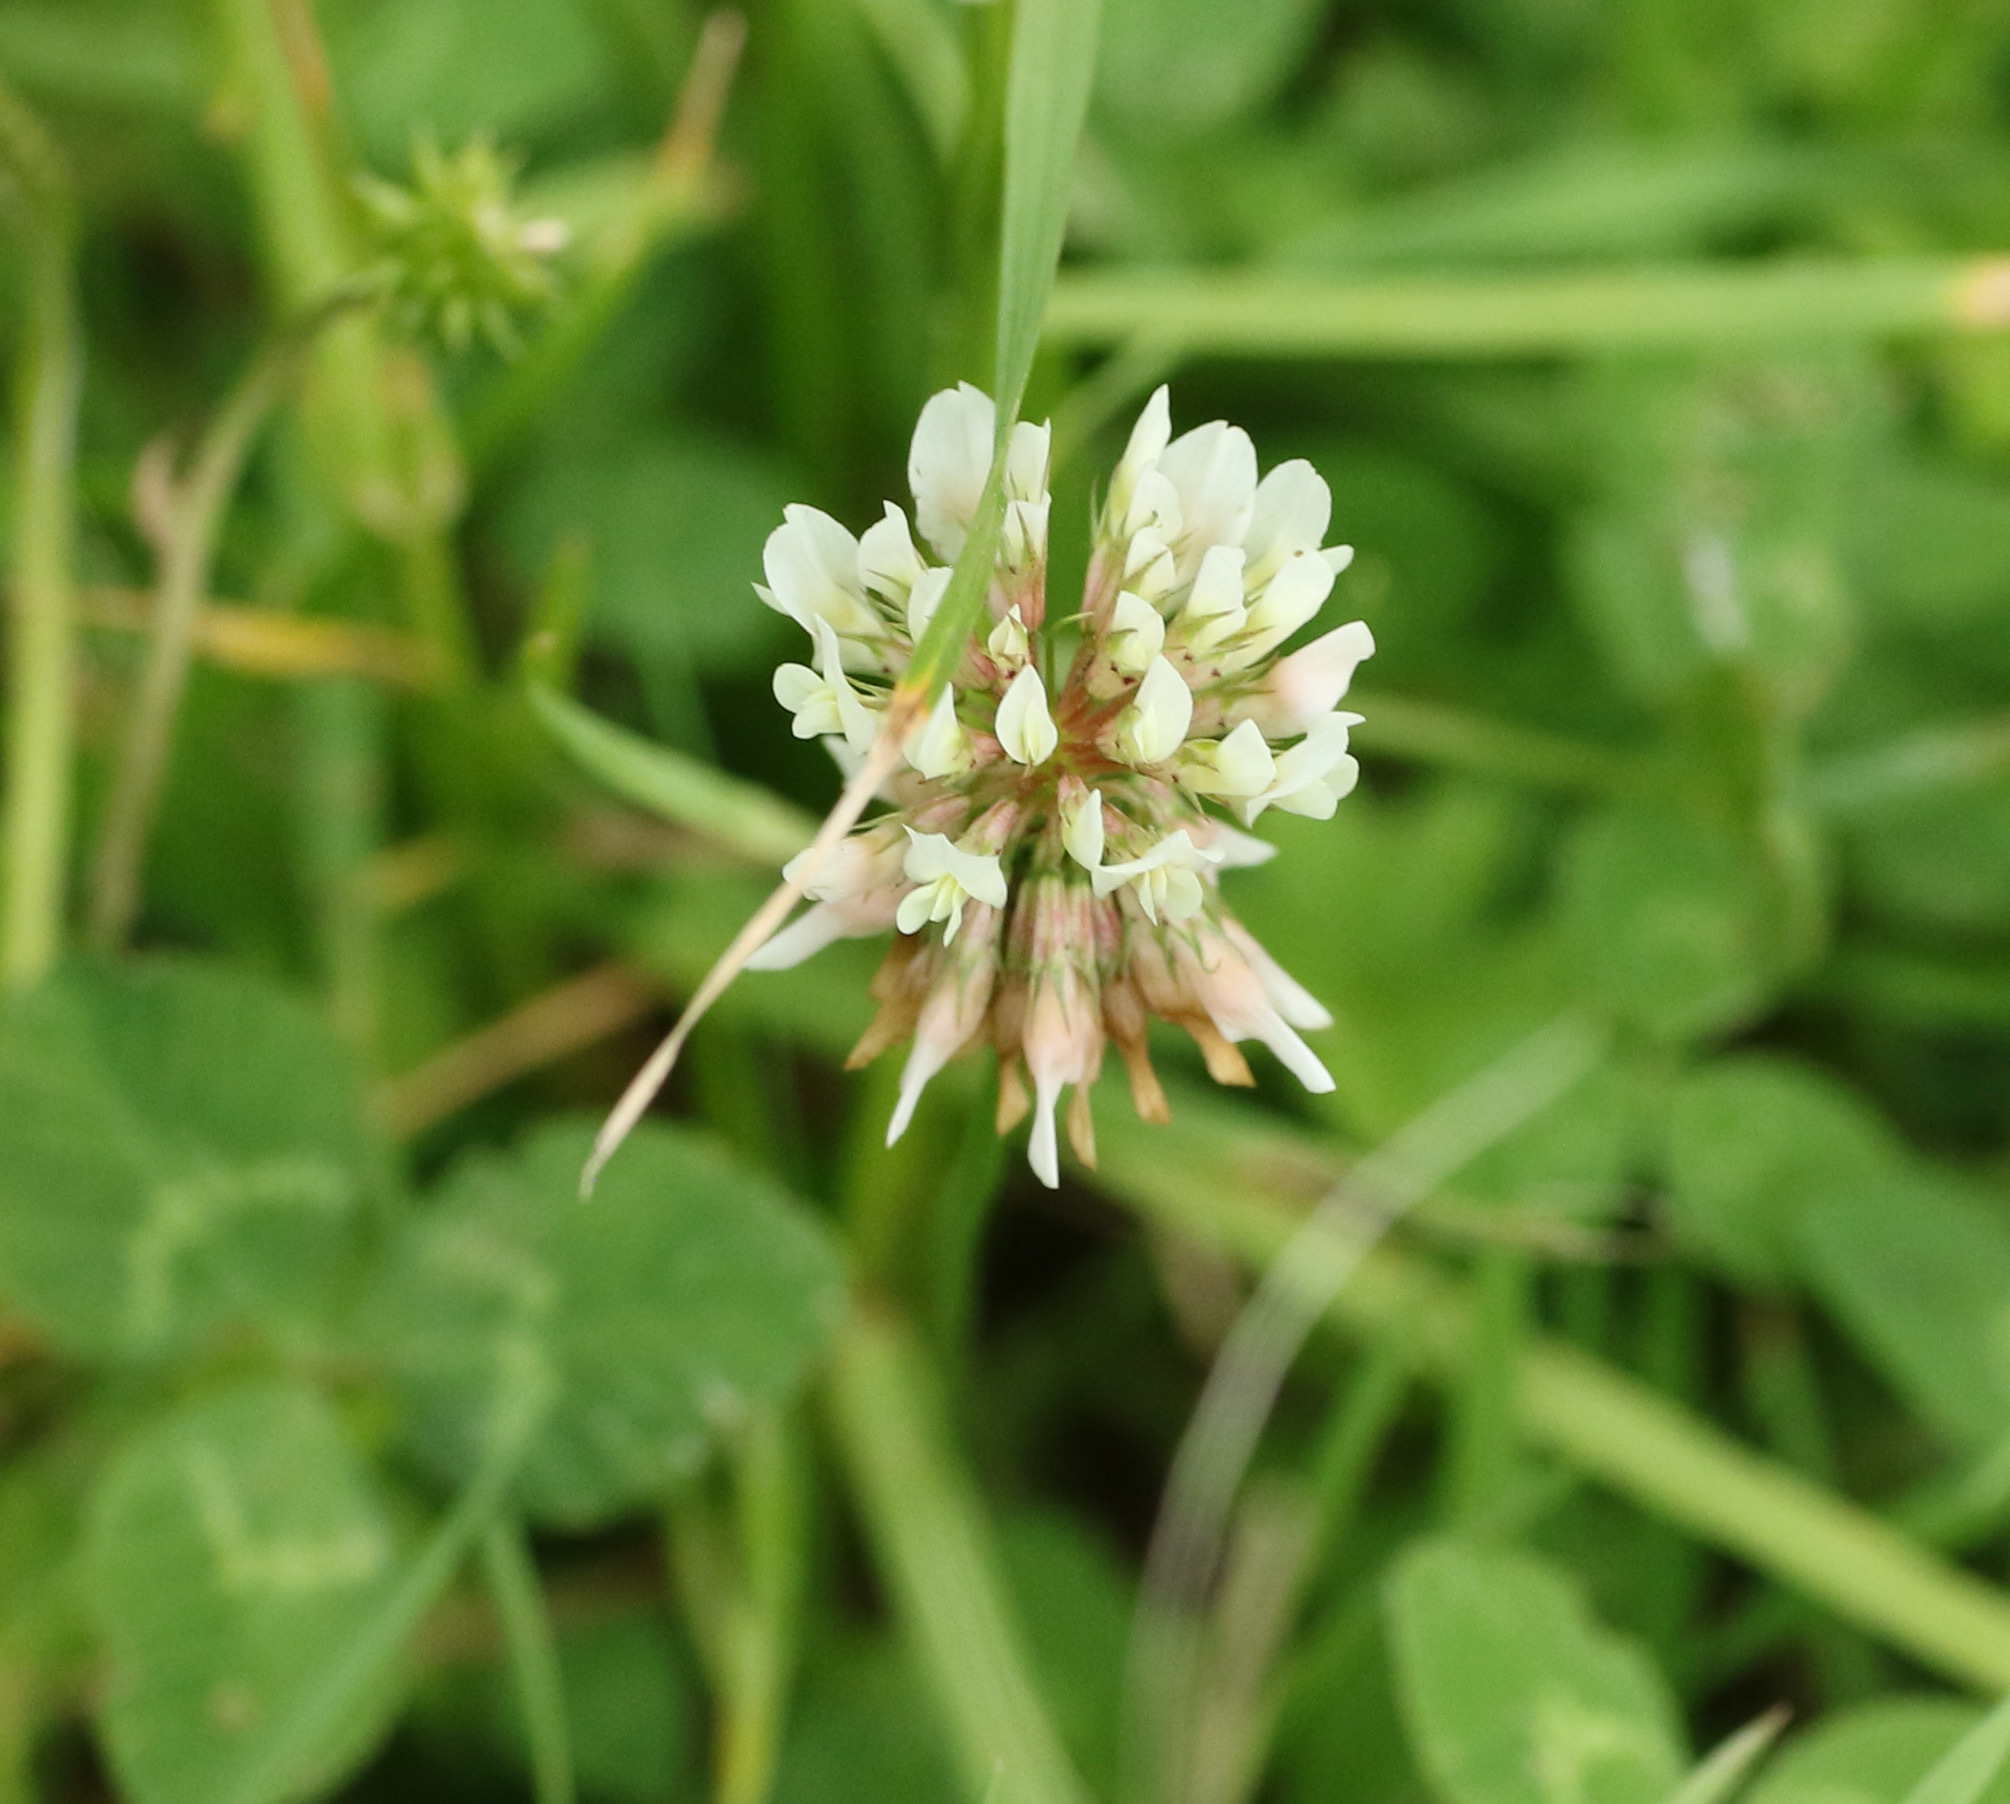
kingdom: Plantae
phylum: Tracheophyta
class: Magnoliopsida
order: Fabales
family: Fabaceae
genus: Trifolium
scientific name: Trifolium repens
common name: White clover
